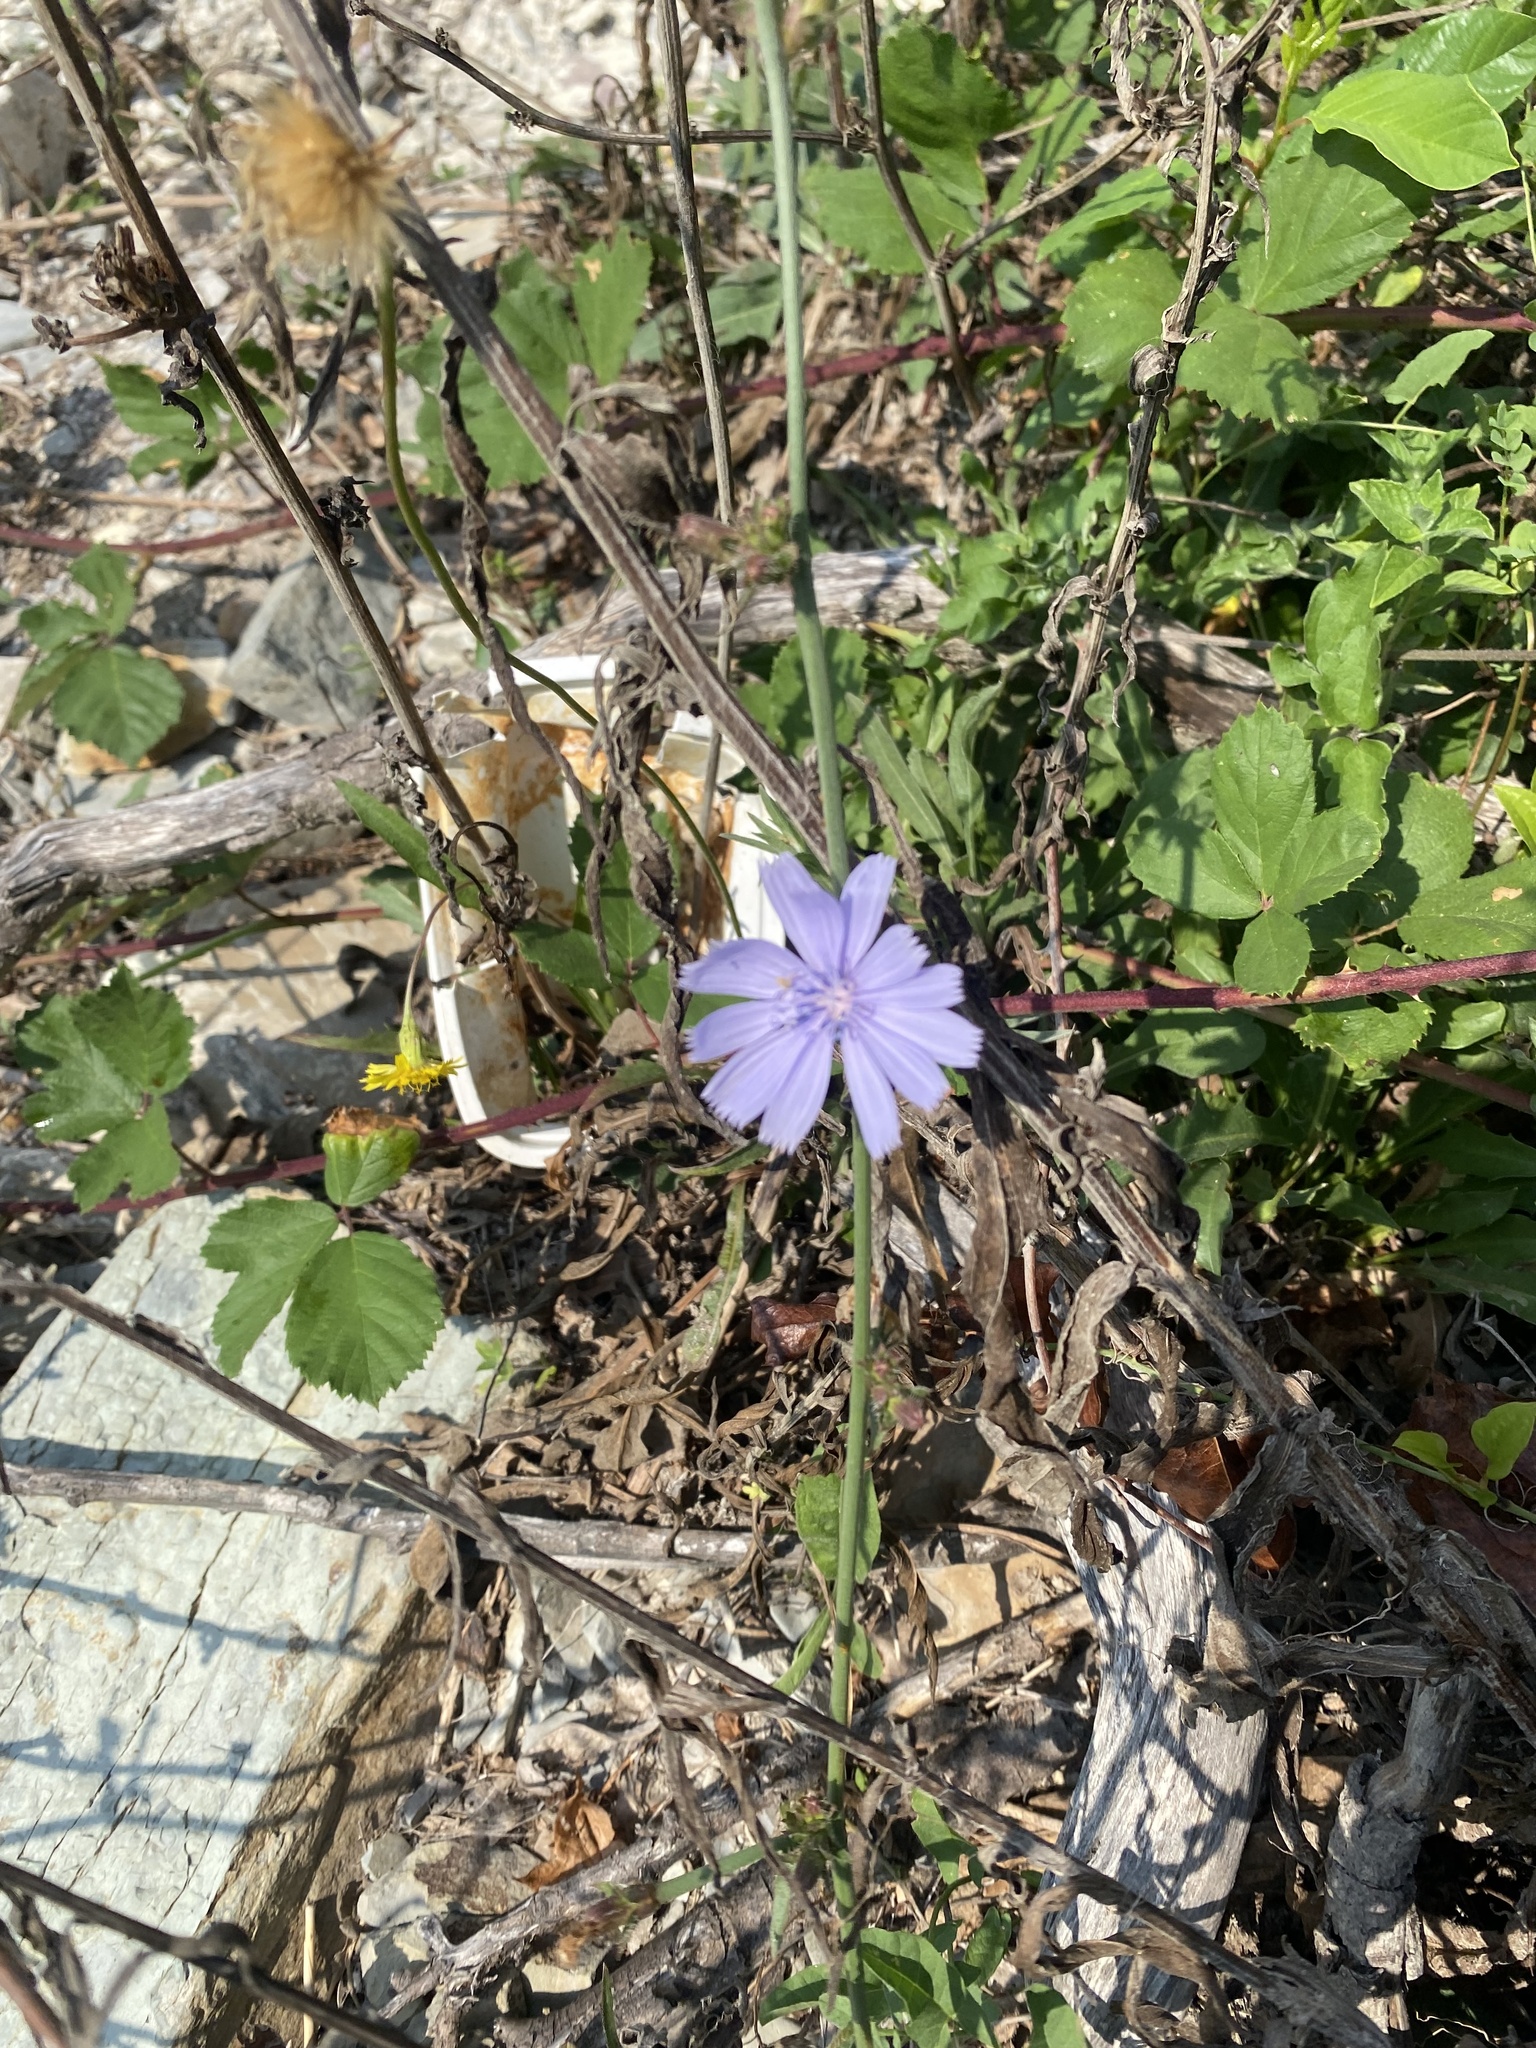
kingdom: Plantae
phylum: Tracheophyta
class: Magnoliopsida
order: Asterales
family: Asteraceae
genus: Cichorium
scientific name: Cichorium intybus
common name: Chicory
